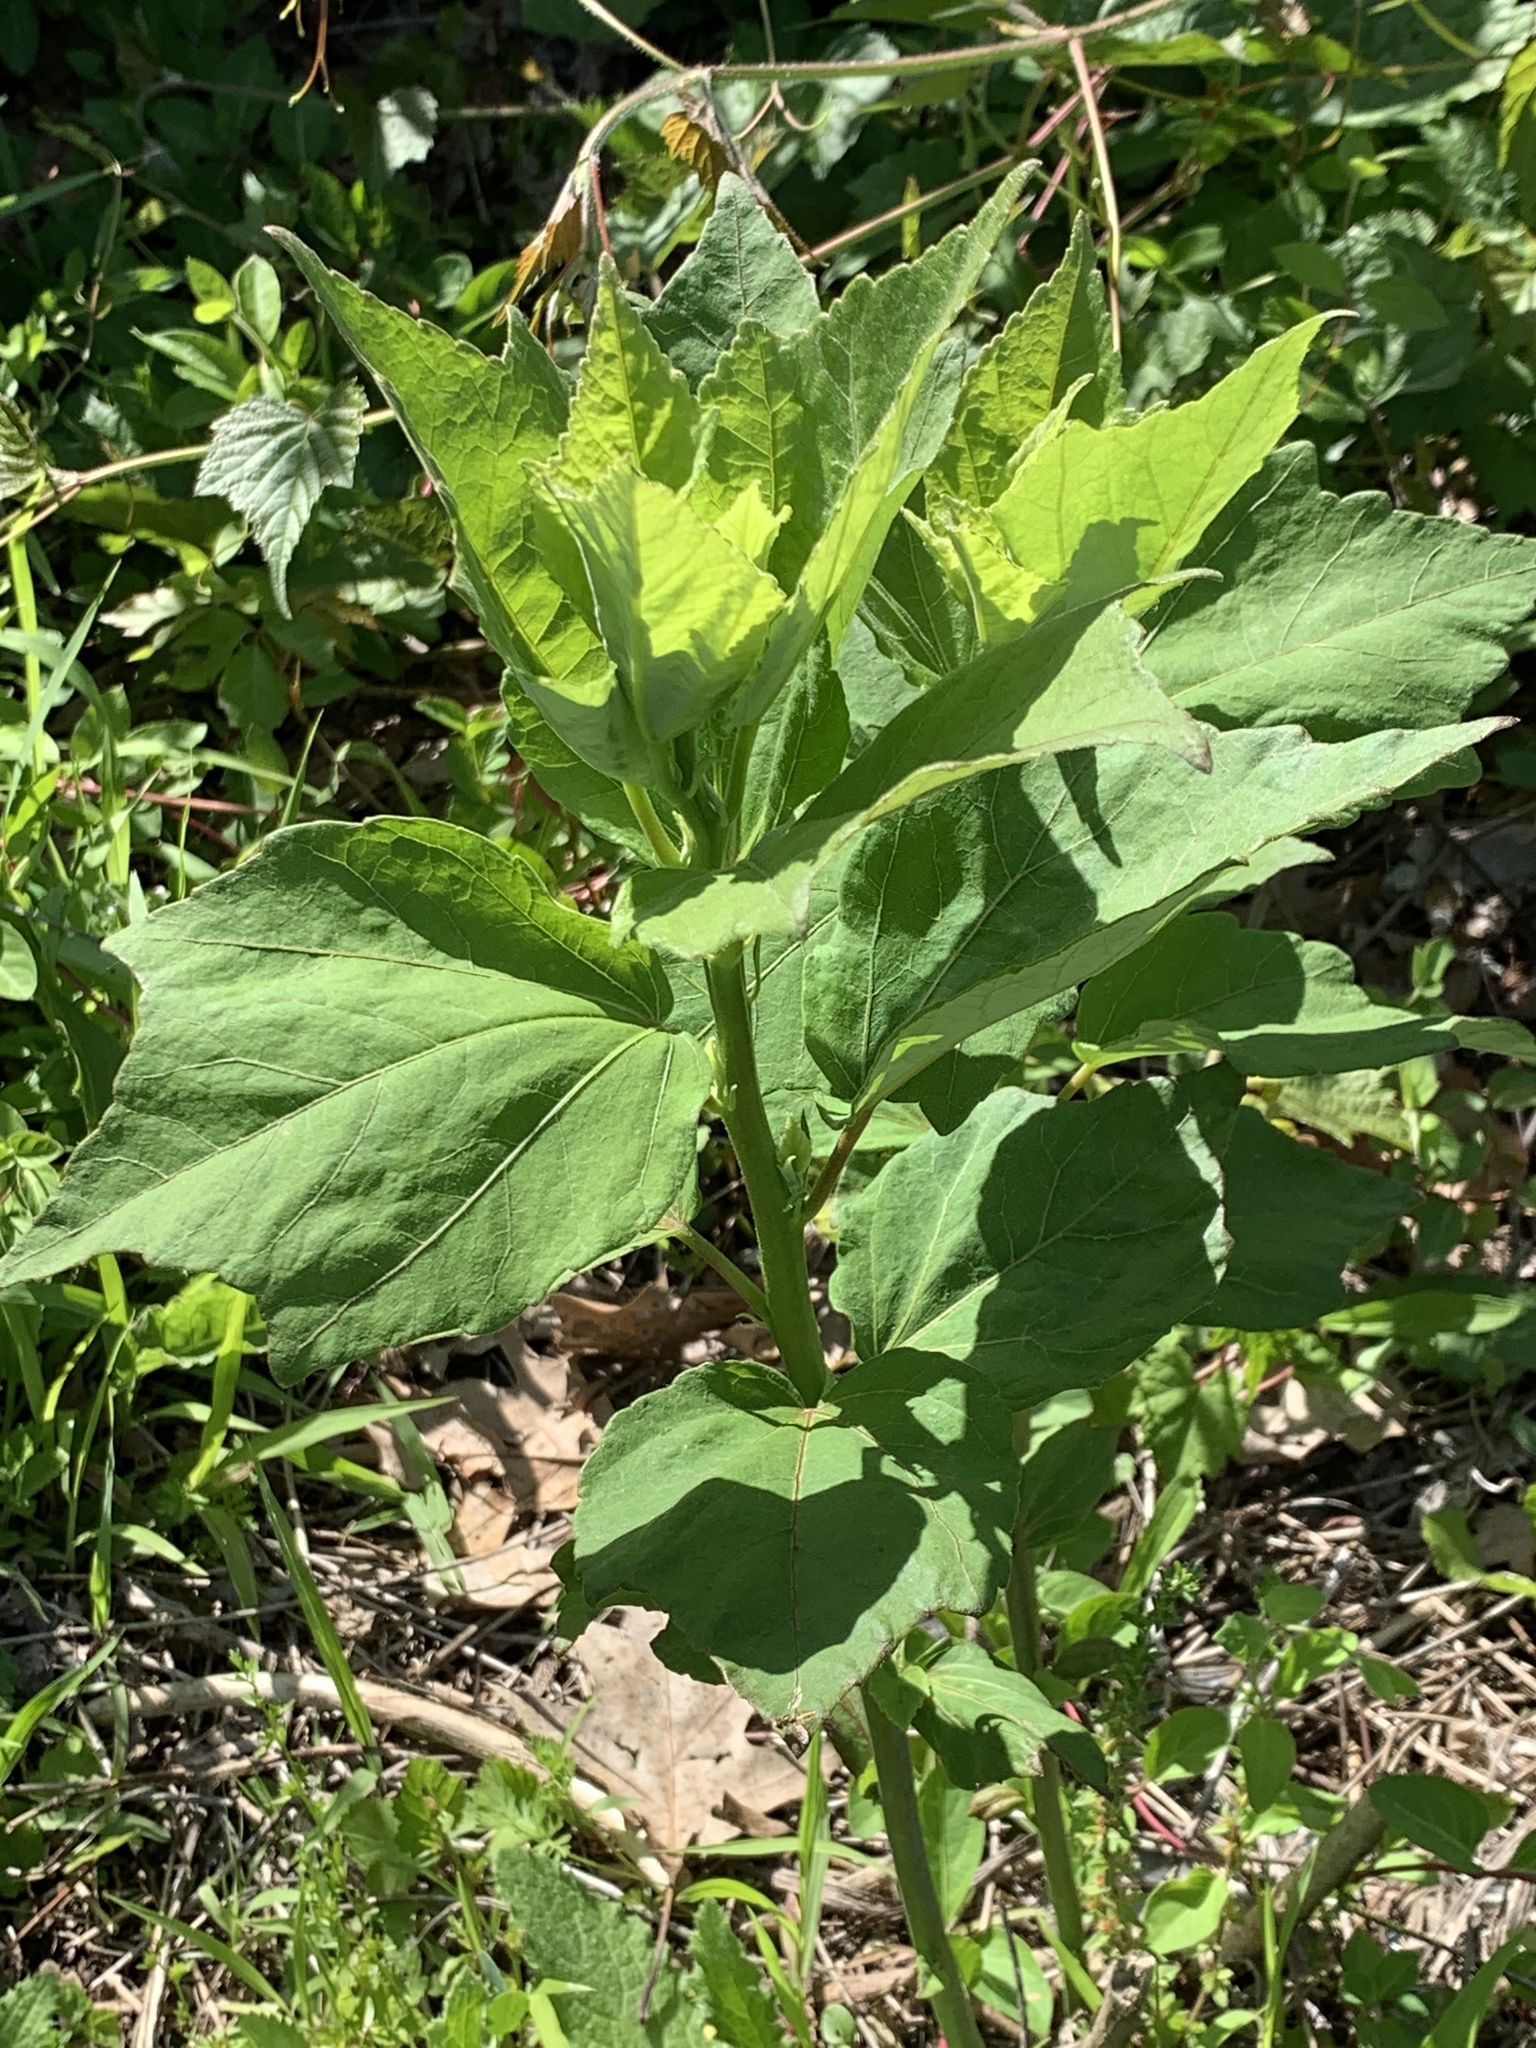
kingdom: Plantae
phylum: Tracheophyta
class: Magnoliopsida
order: Malvales
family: Malvaceae
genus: Hibiscus
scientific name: Hibiscus moscheutos
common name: Common rose-mallow
